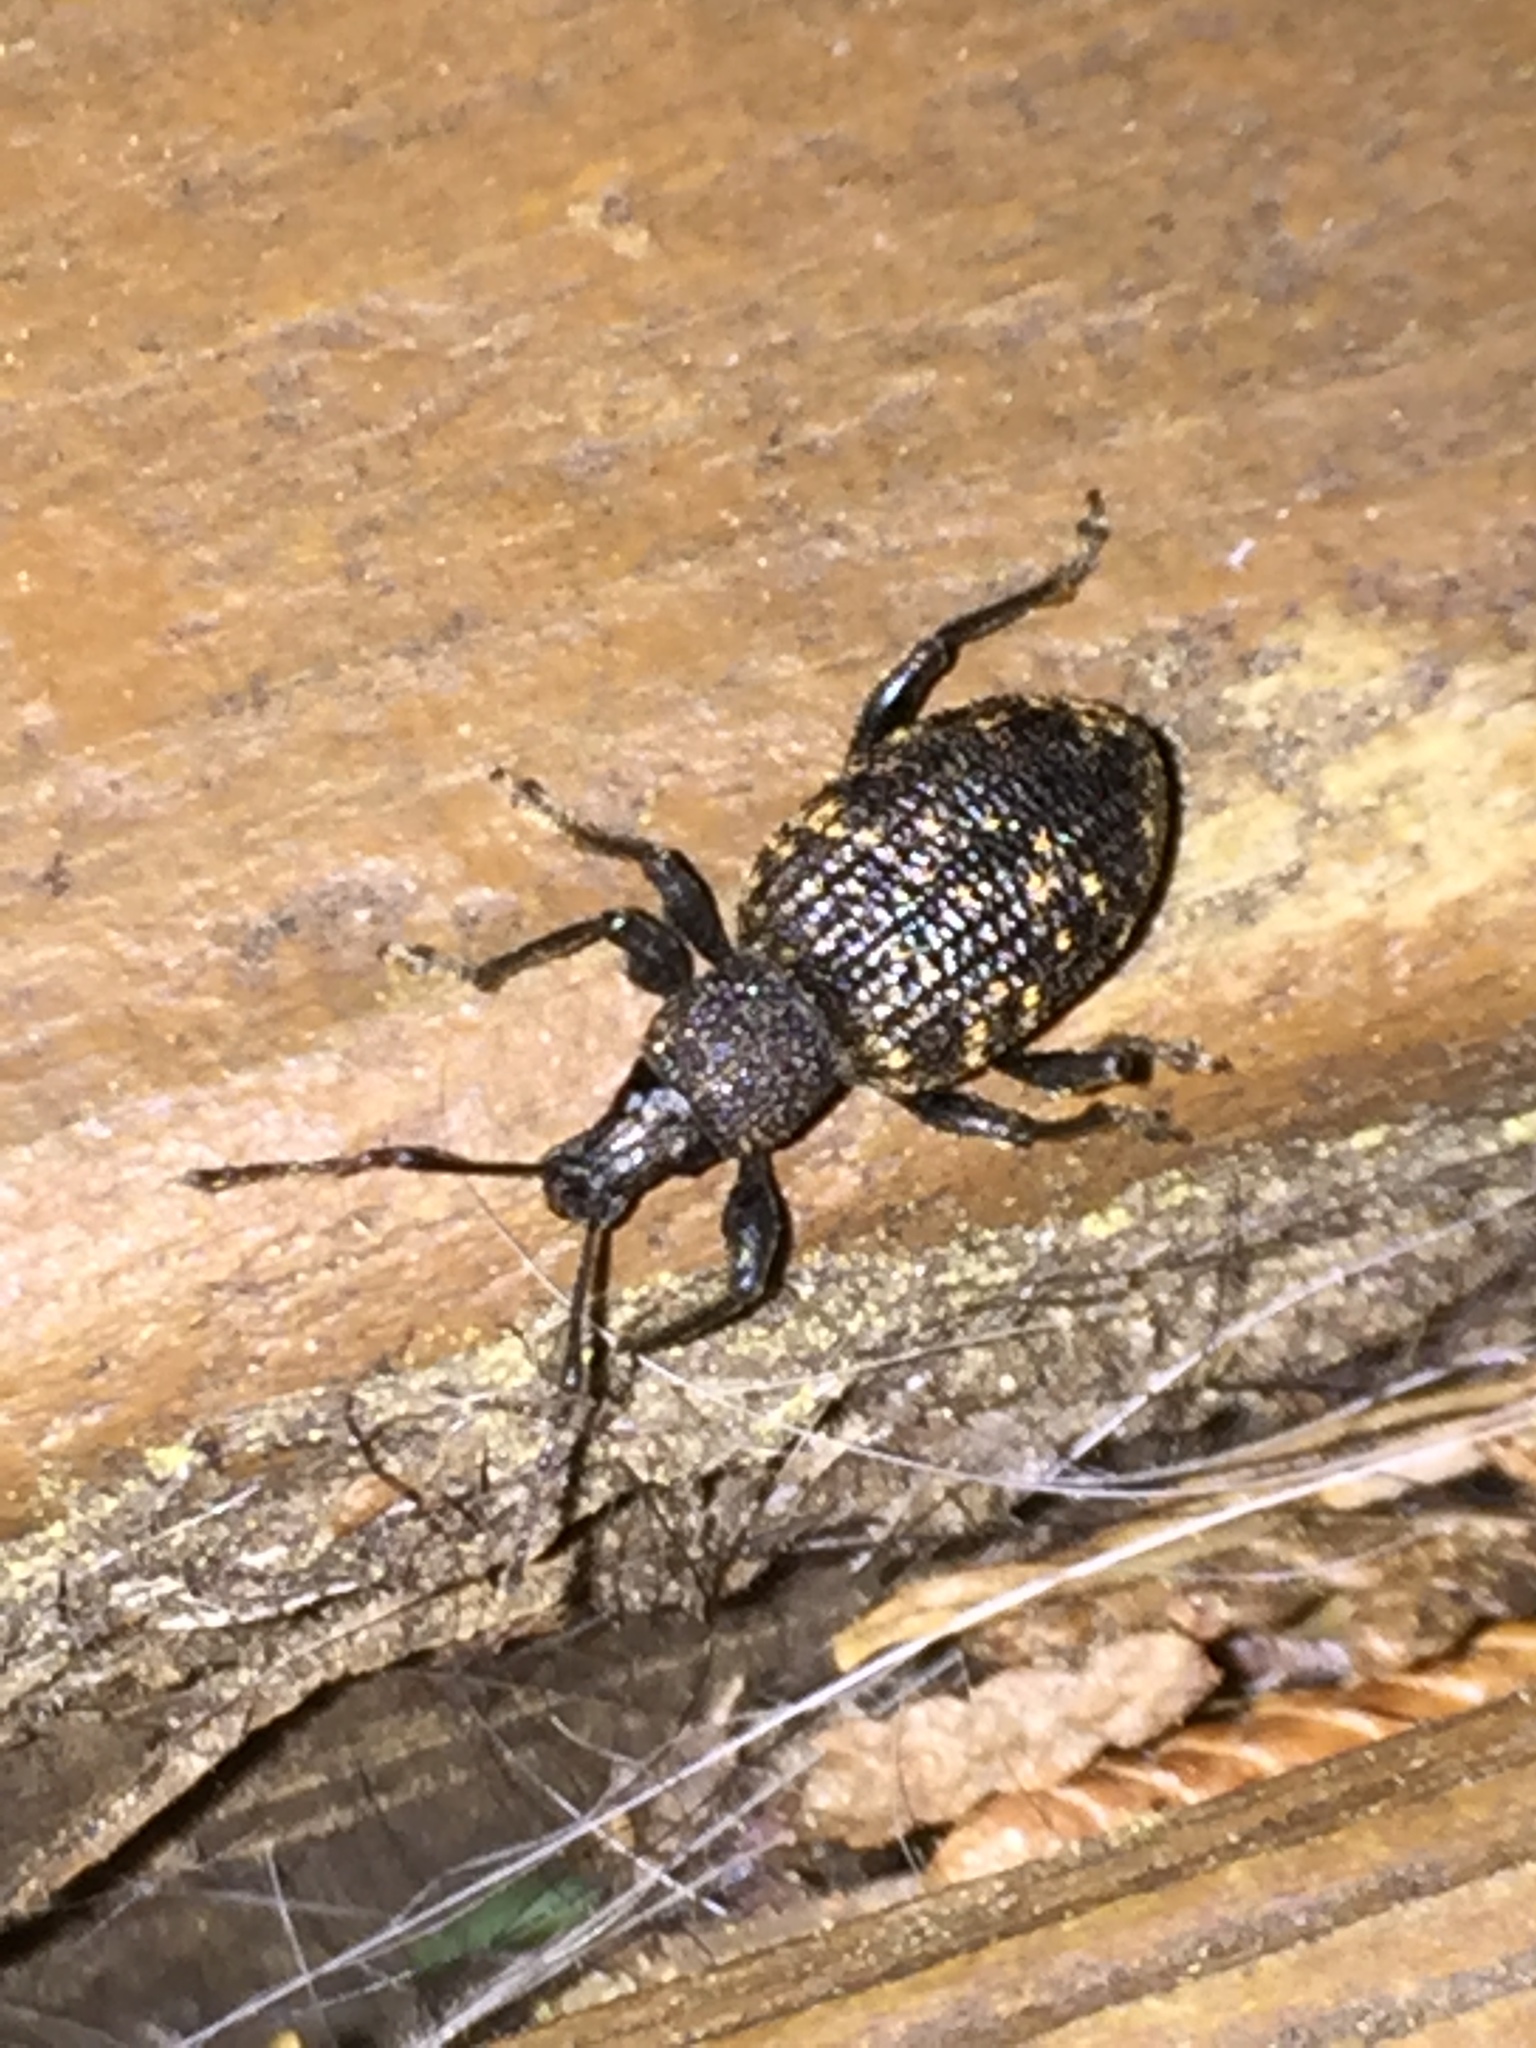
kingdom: Animalia
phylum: Arthropoda
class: Insecta
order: Coleoptera
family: Curculionidae
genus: Otiorhynchus
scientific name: Otiorhynchus sulcatus
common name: Black vine weevil
